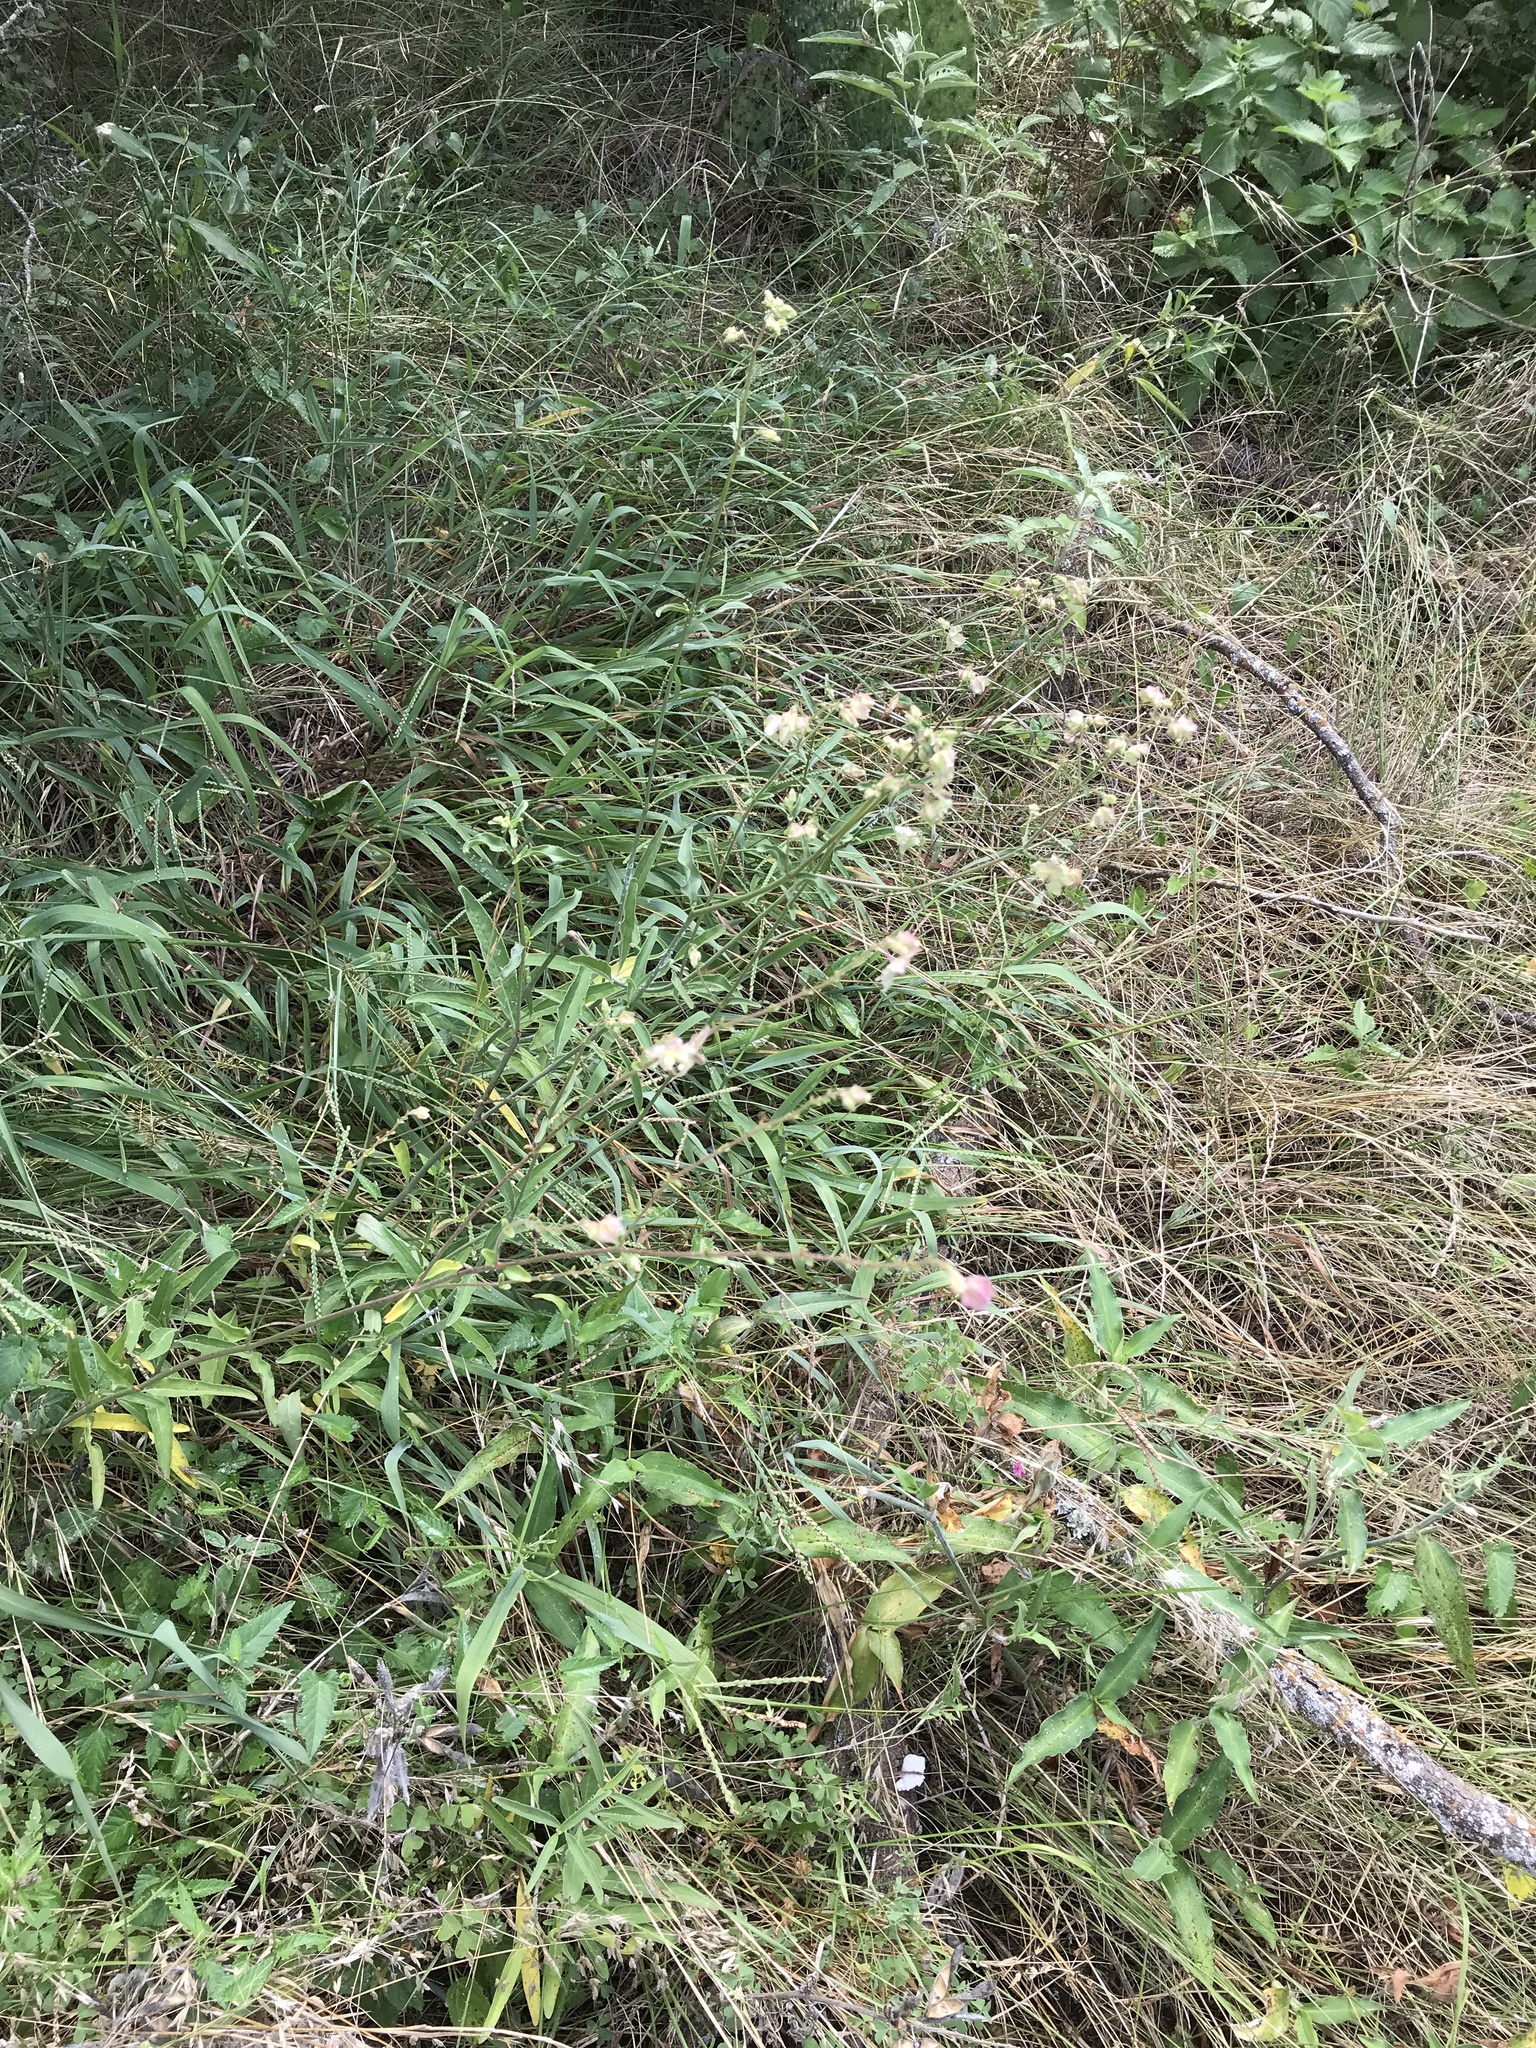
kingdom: Plantae
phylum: Tracheophyta
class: Magnoliopsida
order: Caryophyllales
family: Nyctaginaceae
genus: Mirabilis
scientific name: Mirabilis albida
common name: Hairy four-o'clock
